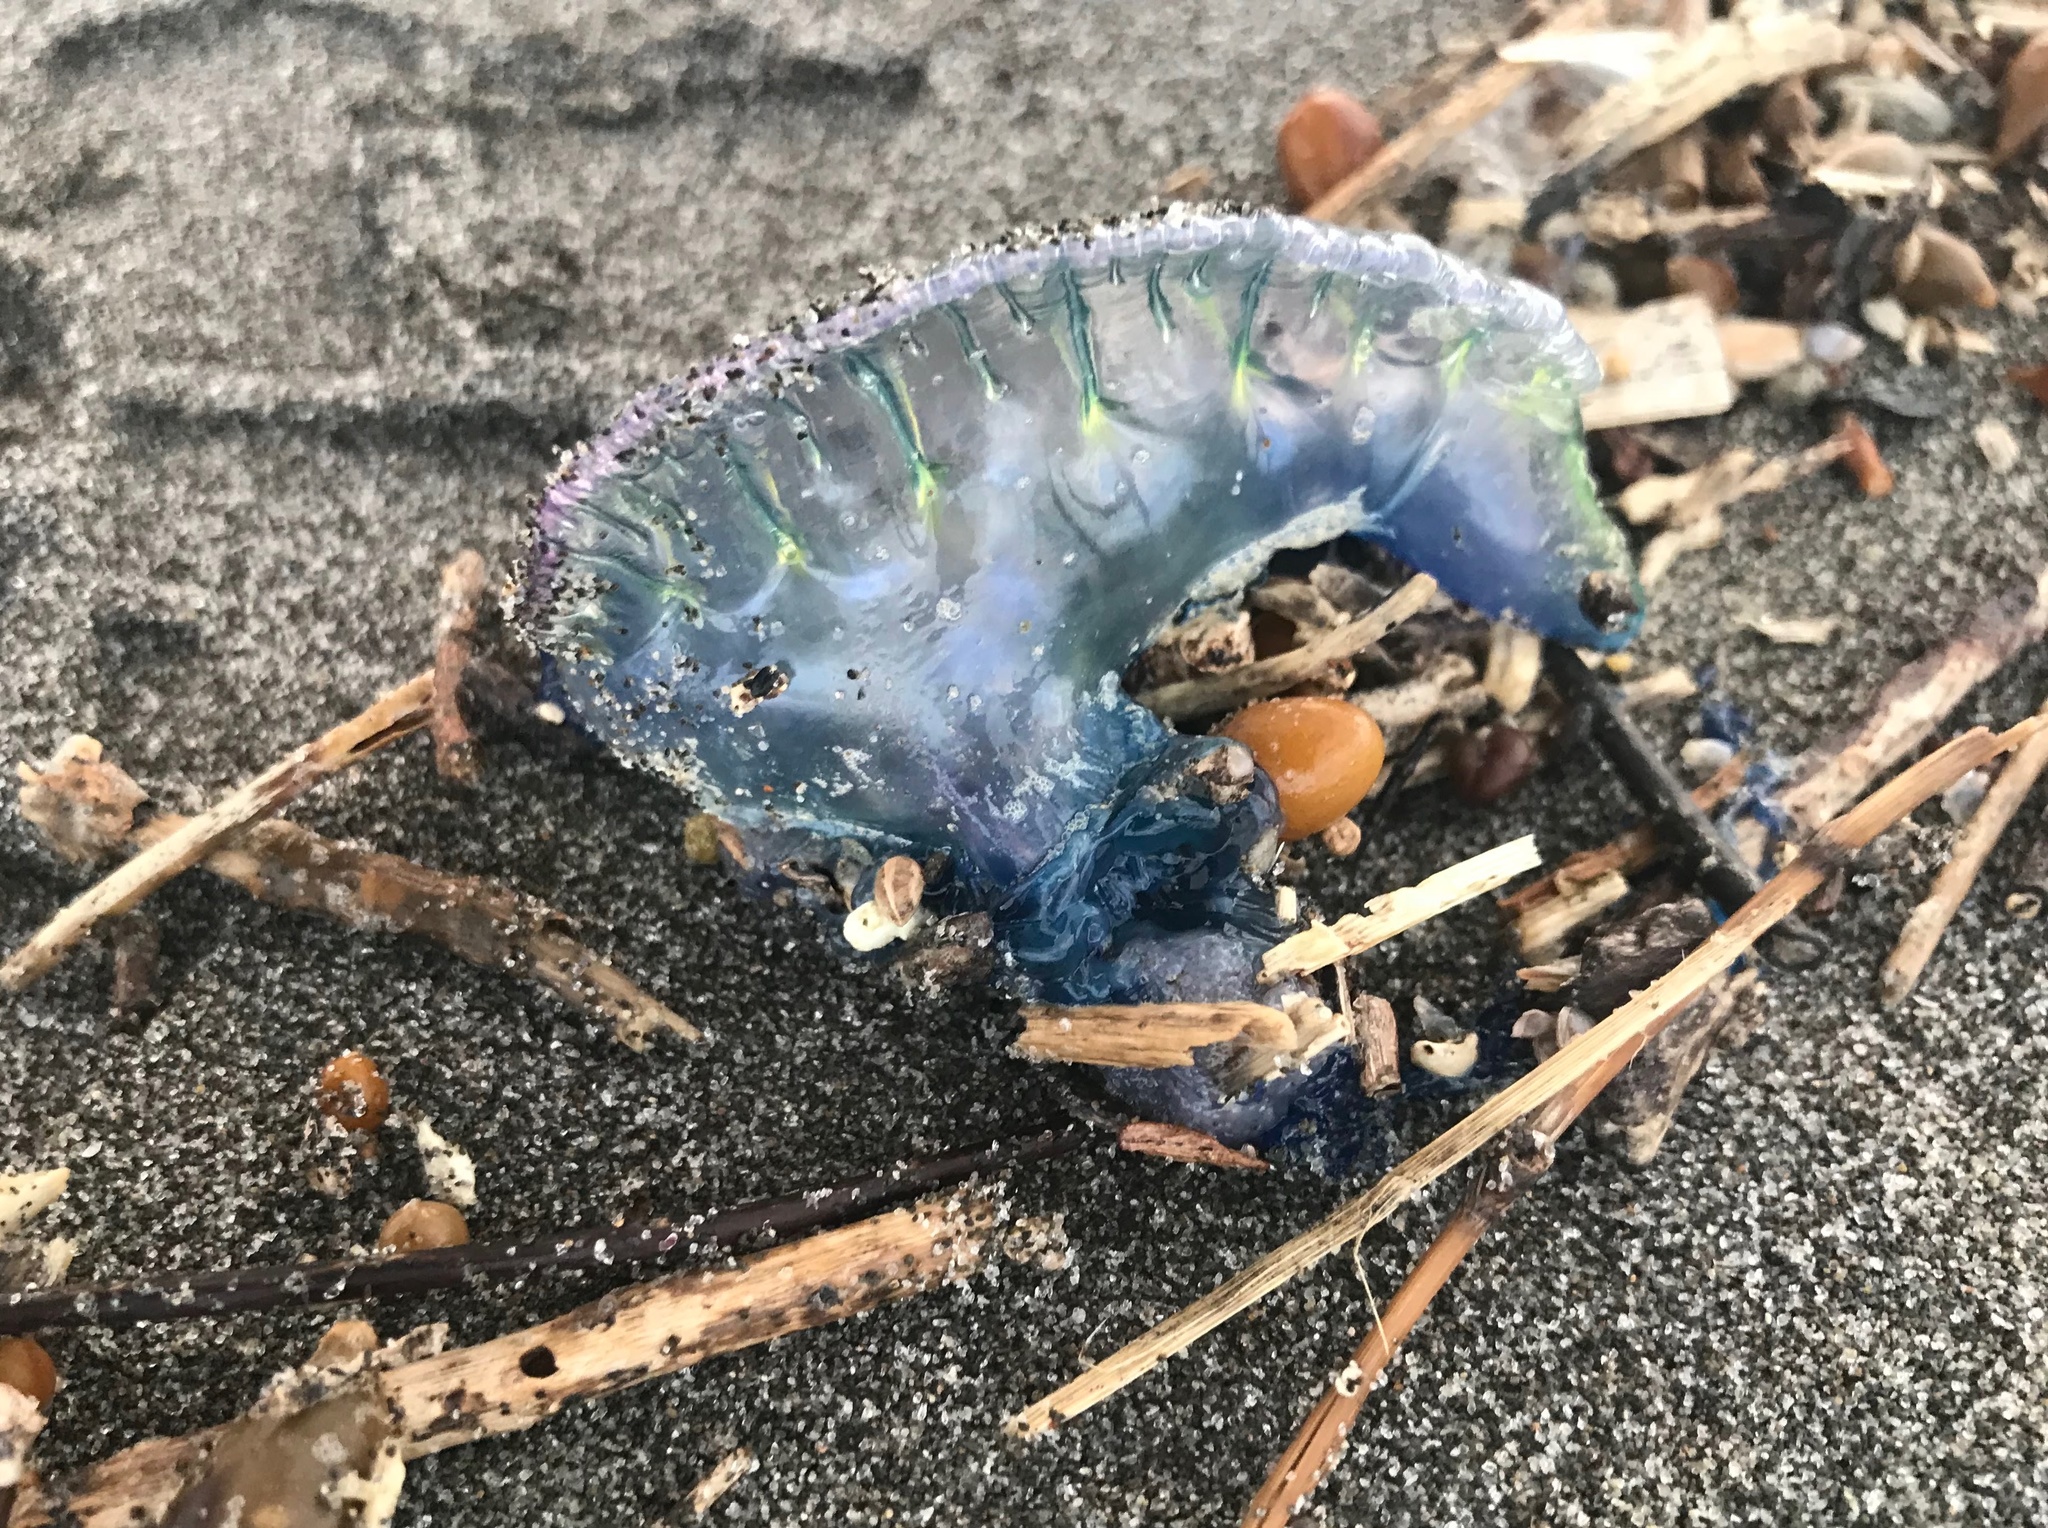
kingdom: Animalia
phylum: Cnidaria
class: Hydrozoa
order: Siphonophorae
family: Physaliidae
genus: Physalia
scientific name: Physalia physalis
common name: Portuguese man-of-war
